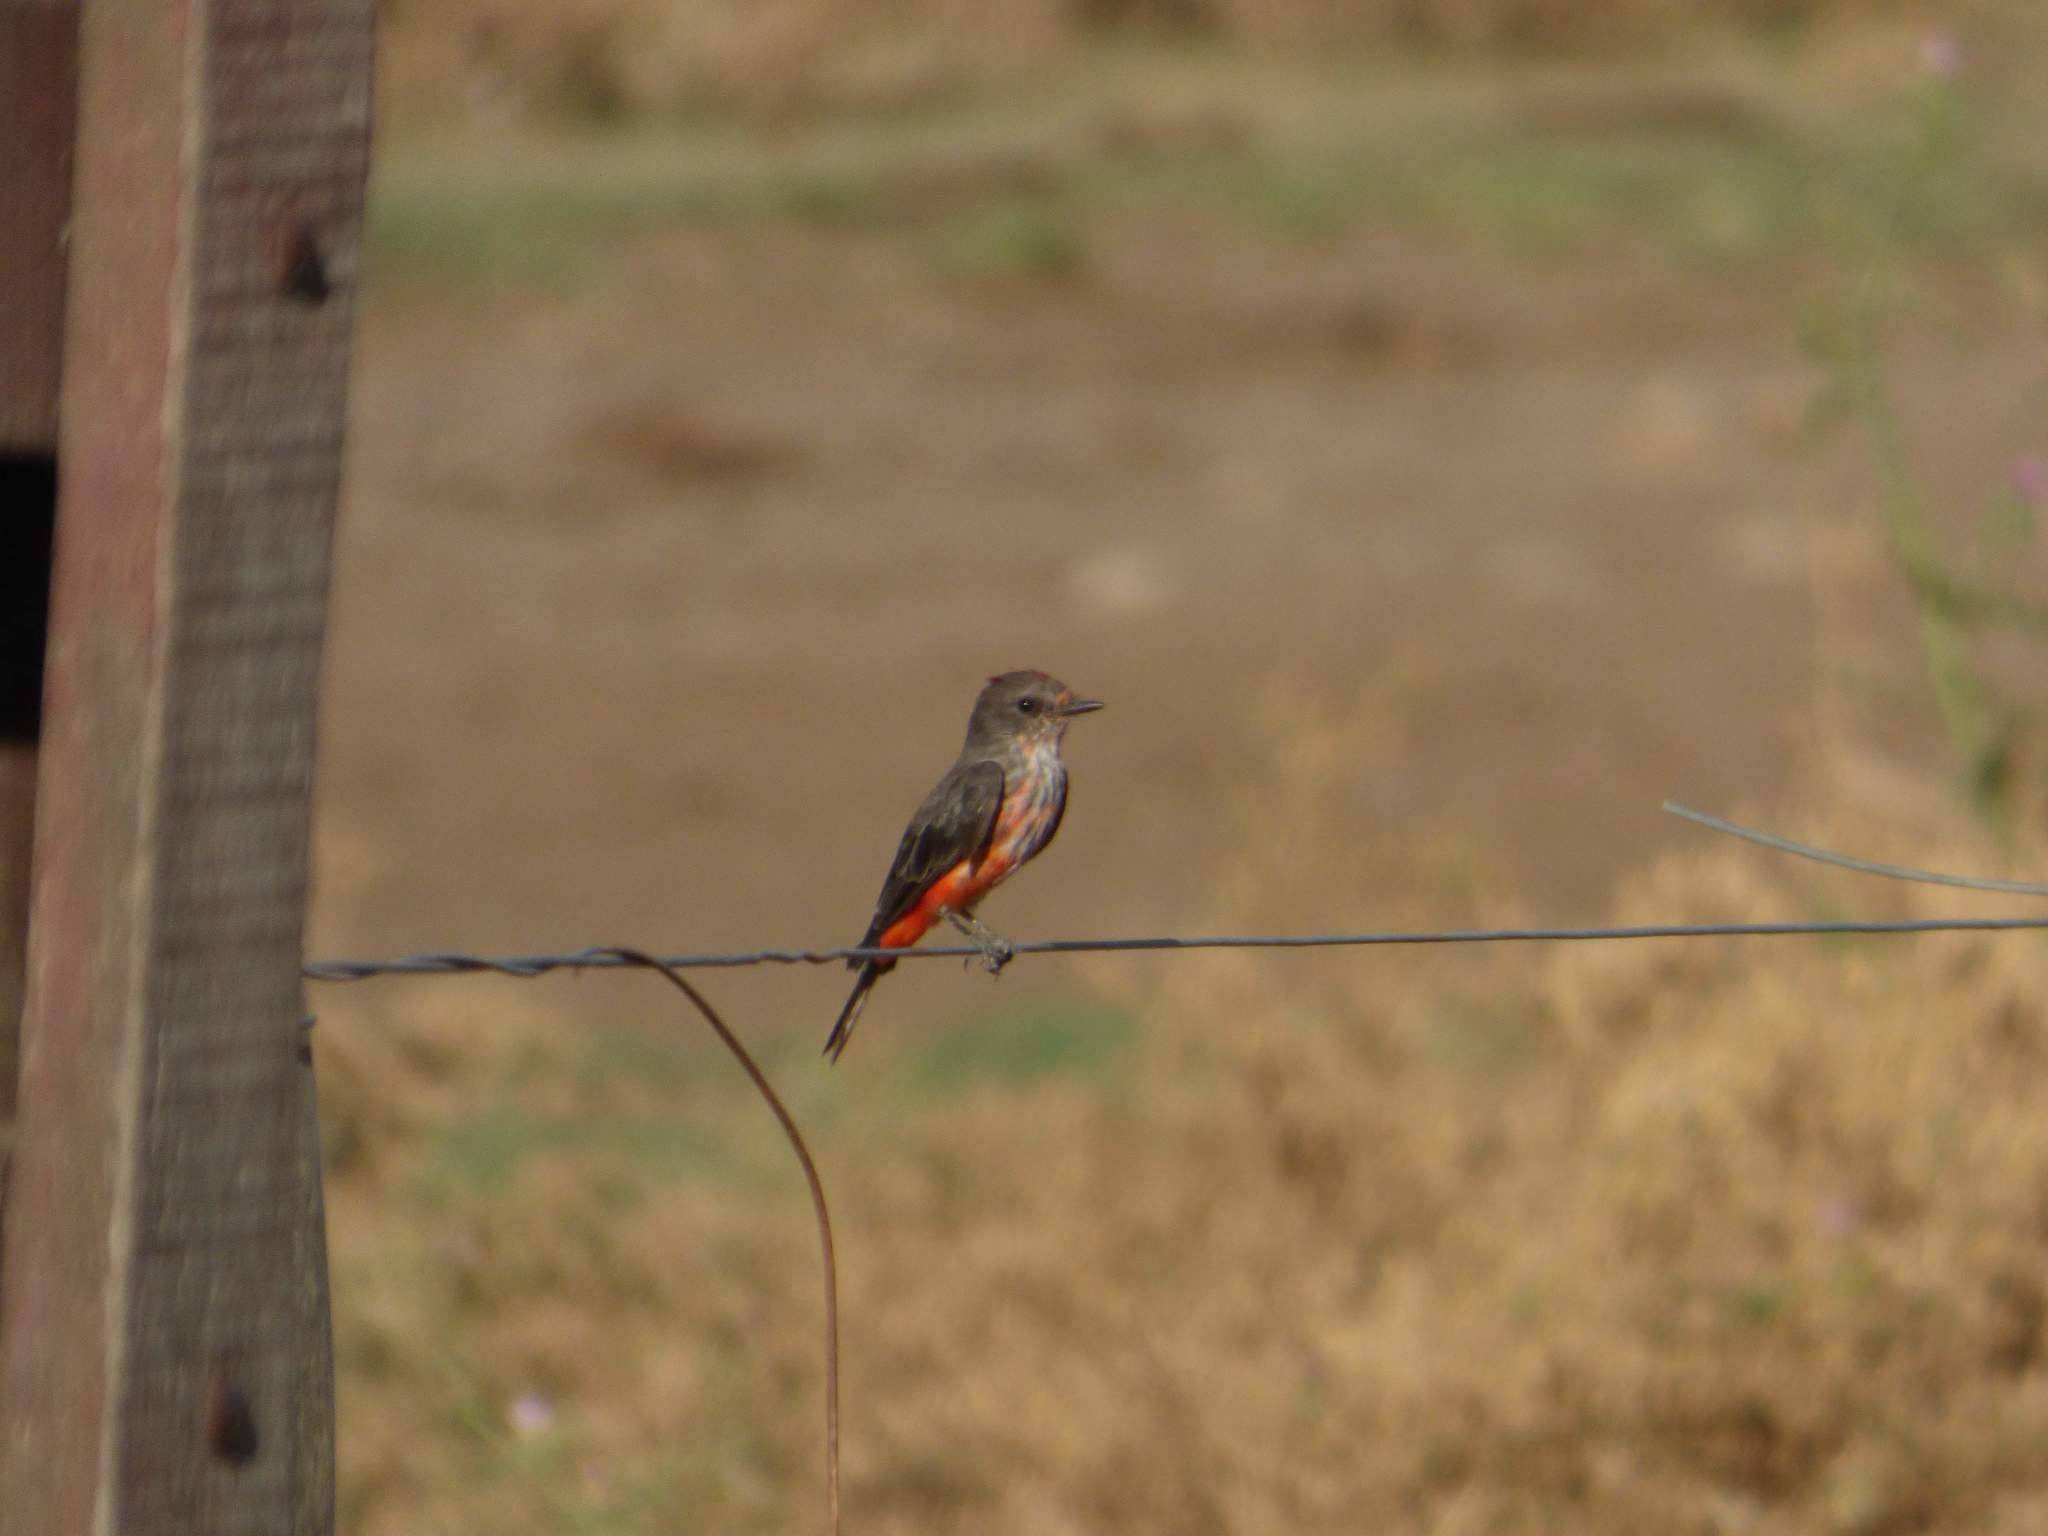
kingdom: Animalia
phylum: Chordata
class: Aves
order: Passeriformes
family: Tyrannidae
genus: Pyrocephalus
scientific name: Pyrocephalus rubinus
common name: Vermilion flycatcher
